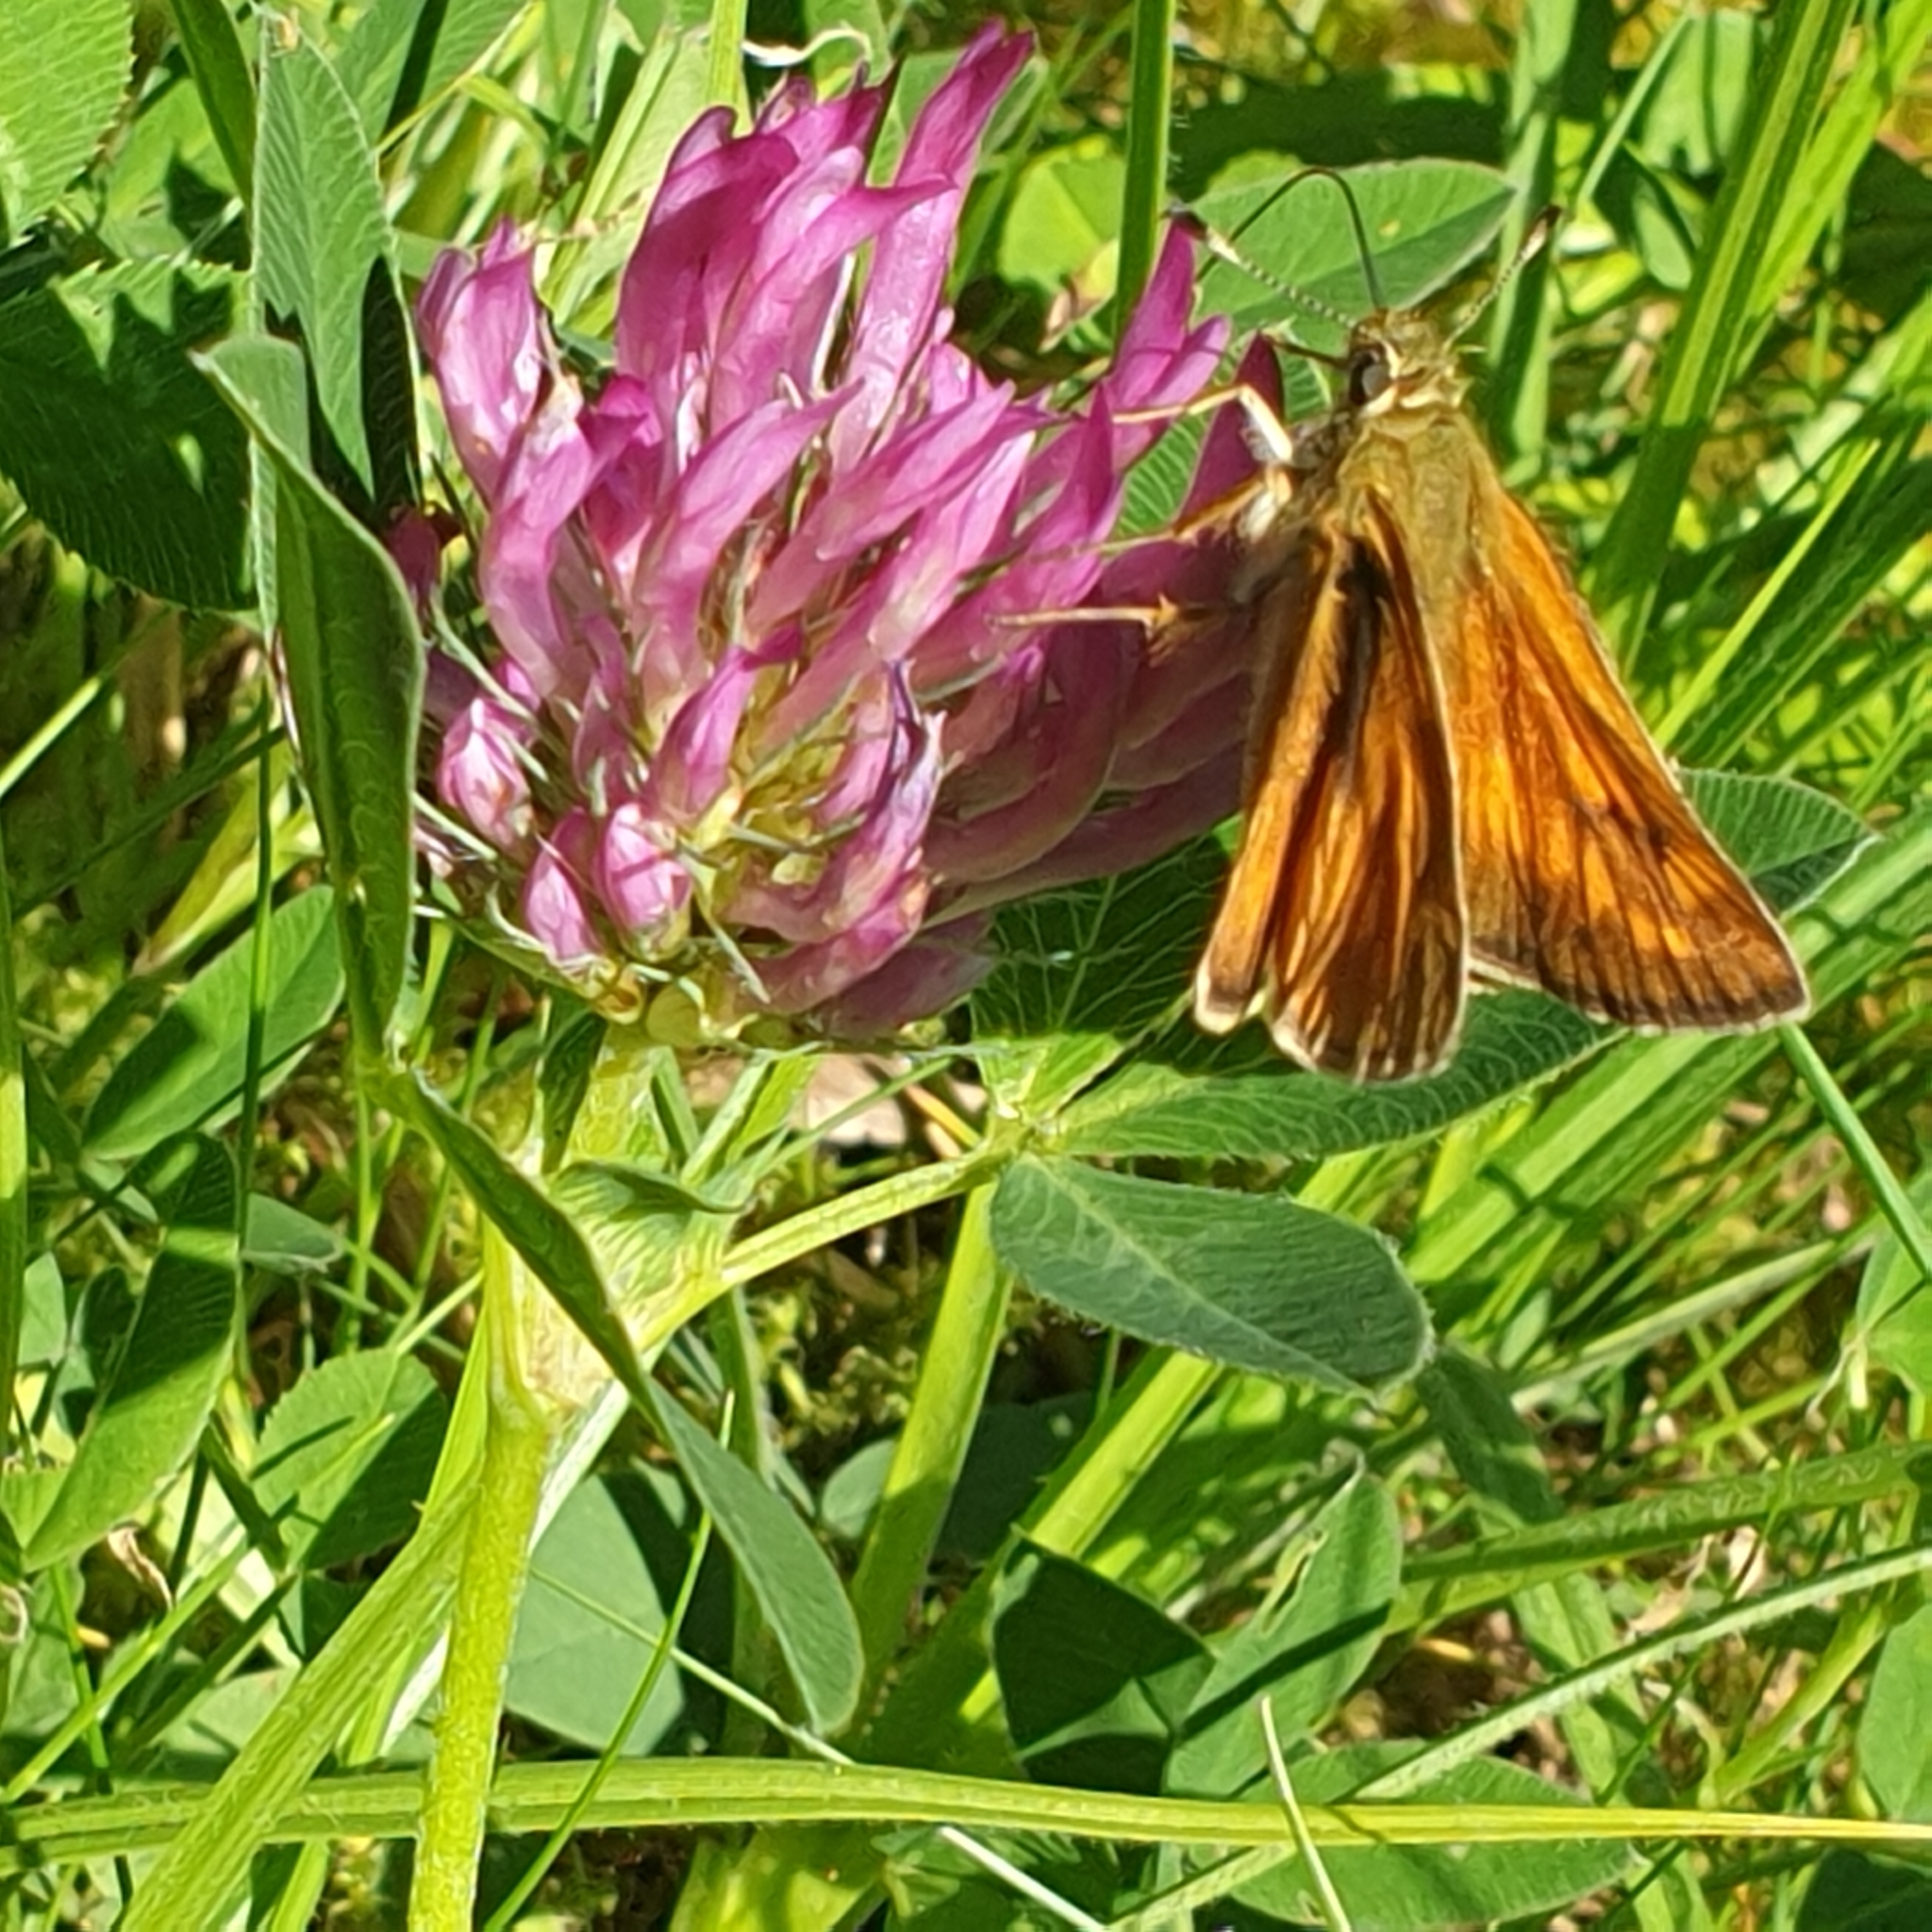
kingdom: Animalia
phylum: Arthropoda
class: Insecta
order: Lepidoptera
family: Hesperiidae
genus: Ochlodes
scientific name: Ochlodes venata
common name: Large skipper
